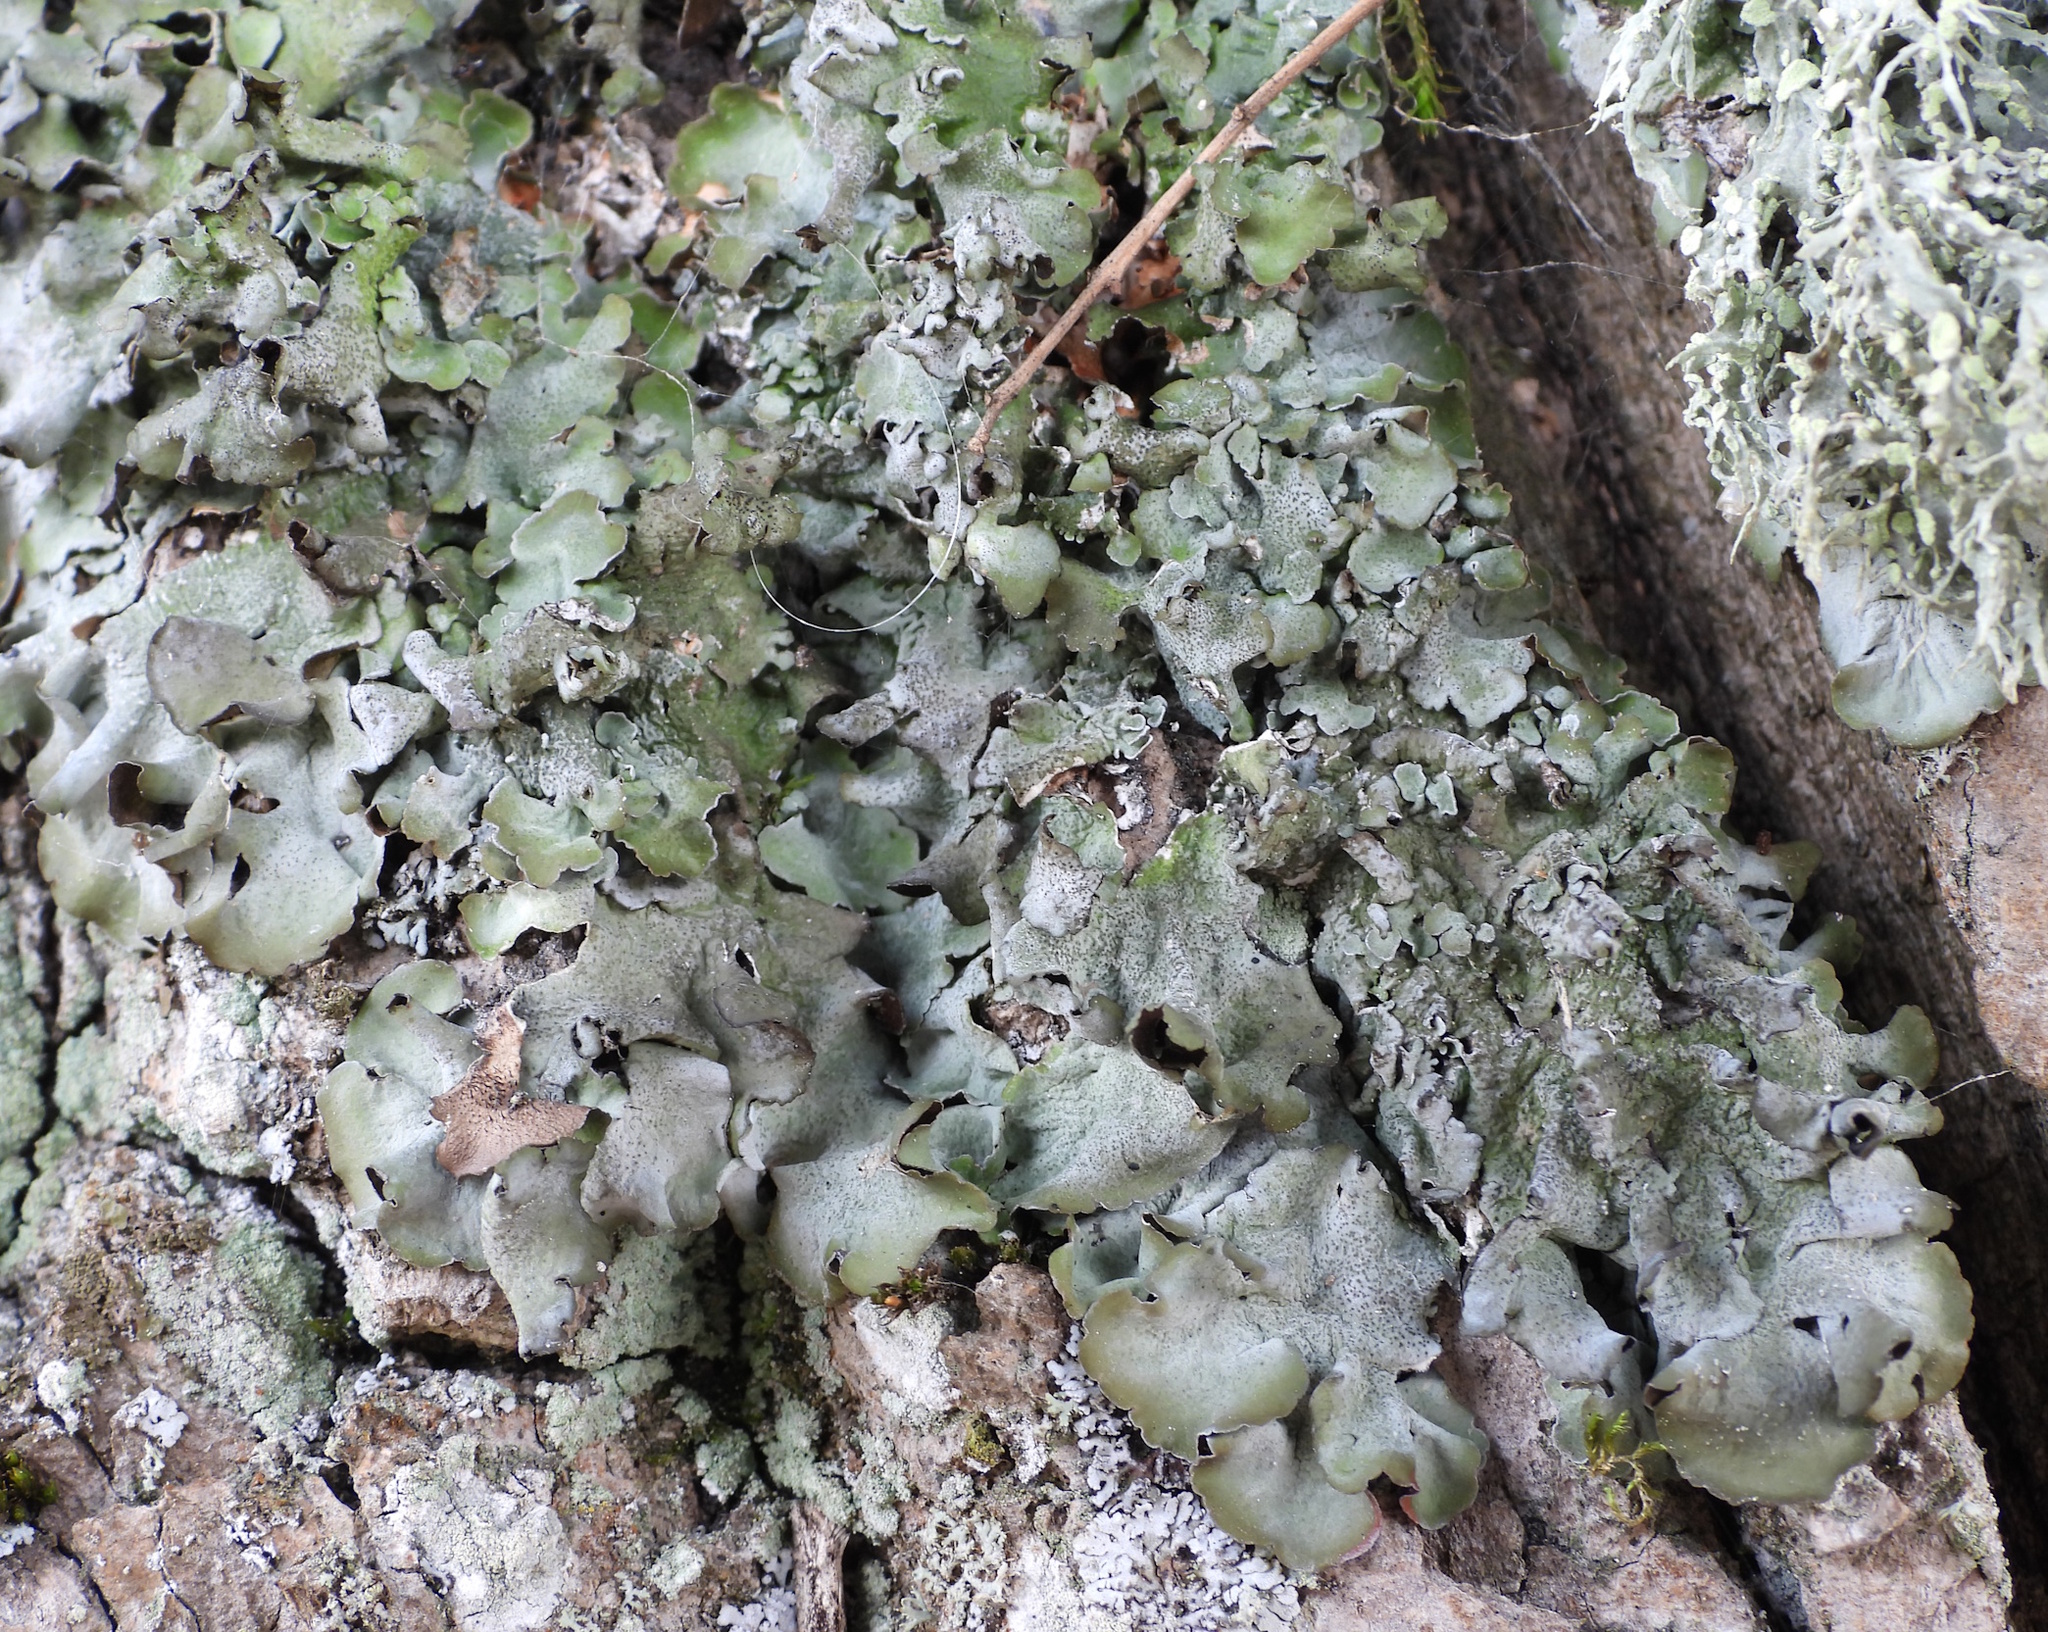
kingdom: Fungi
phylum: Ascomycota
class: Lecanoromycetes
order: Lecanorales
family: Parmeliaceae
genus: Pleurosticta
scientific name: Pleurosticta acetabulum
